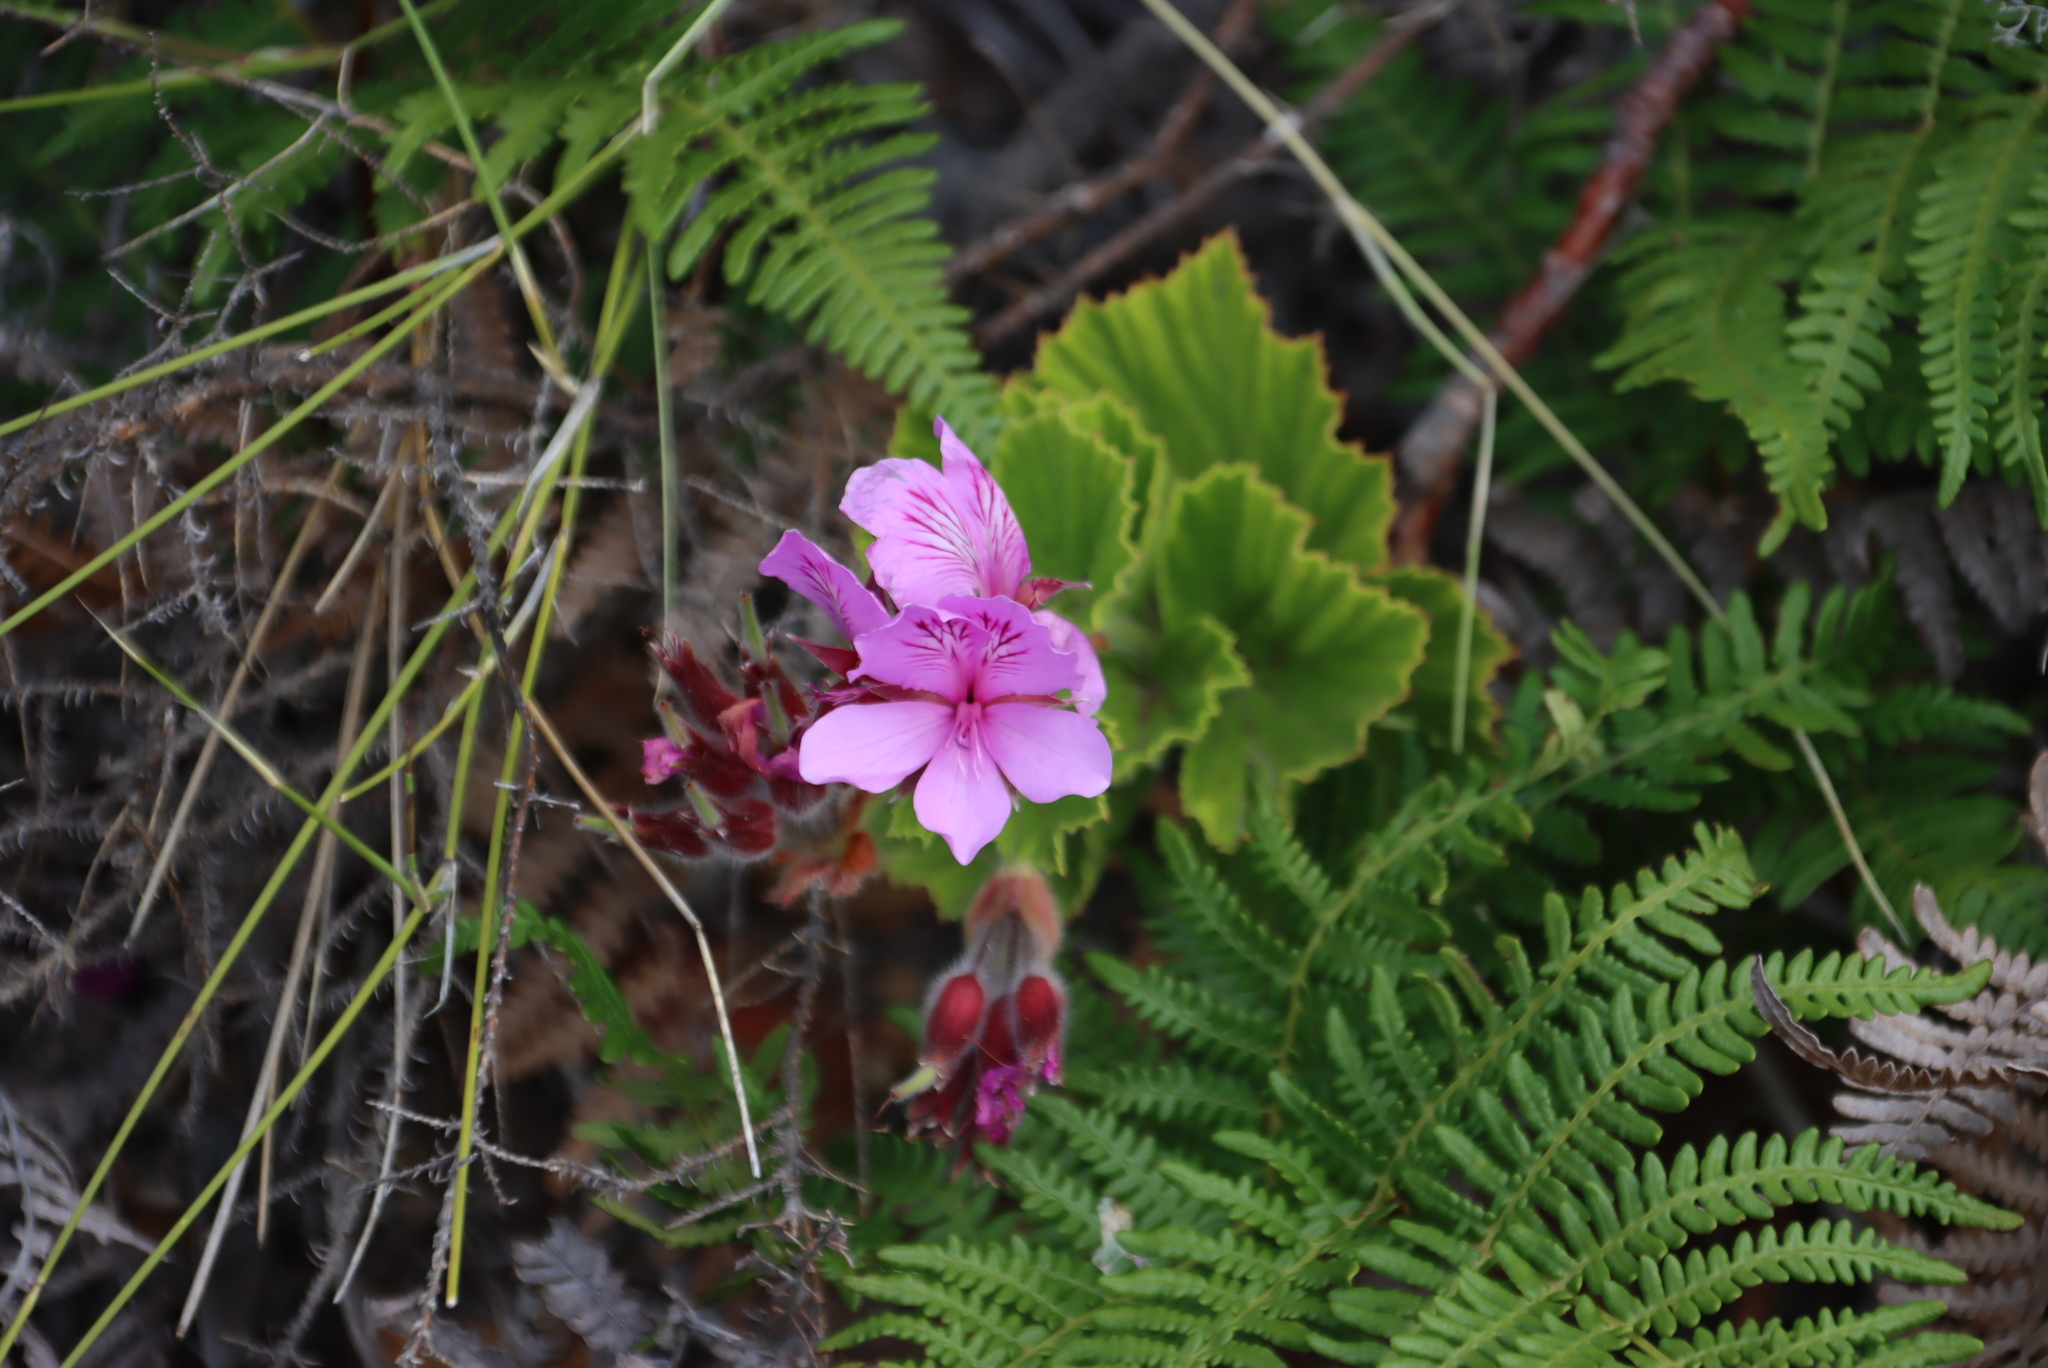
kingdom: Plantae
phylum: Tracheophyta
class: Magnoliopsida
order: Geraniales
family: Geraniaceae
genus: Pelargonium
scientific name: Pelargonium cucullatum
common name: Tree pelargonium
